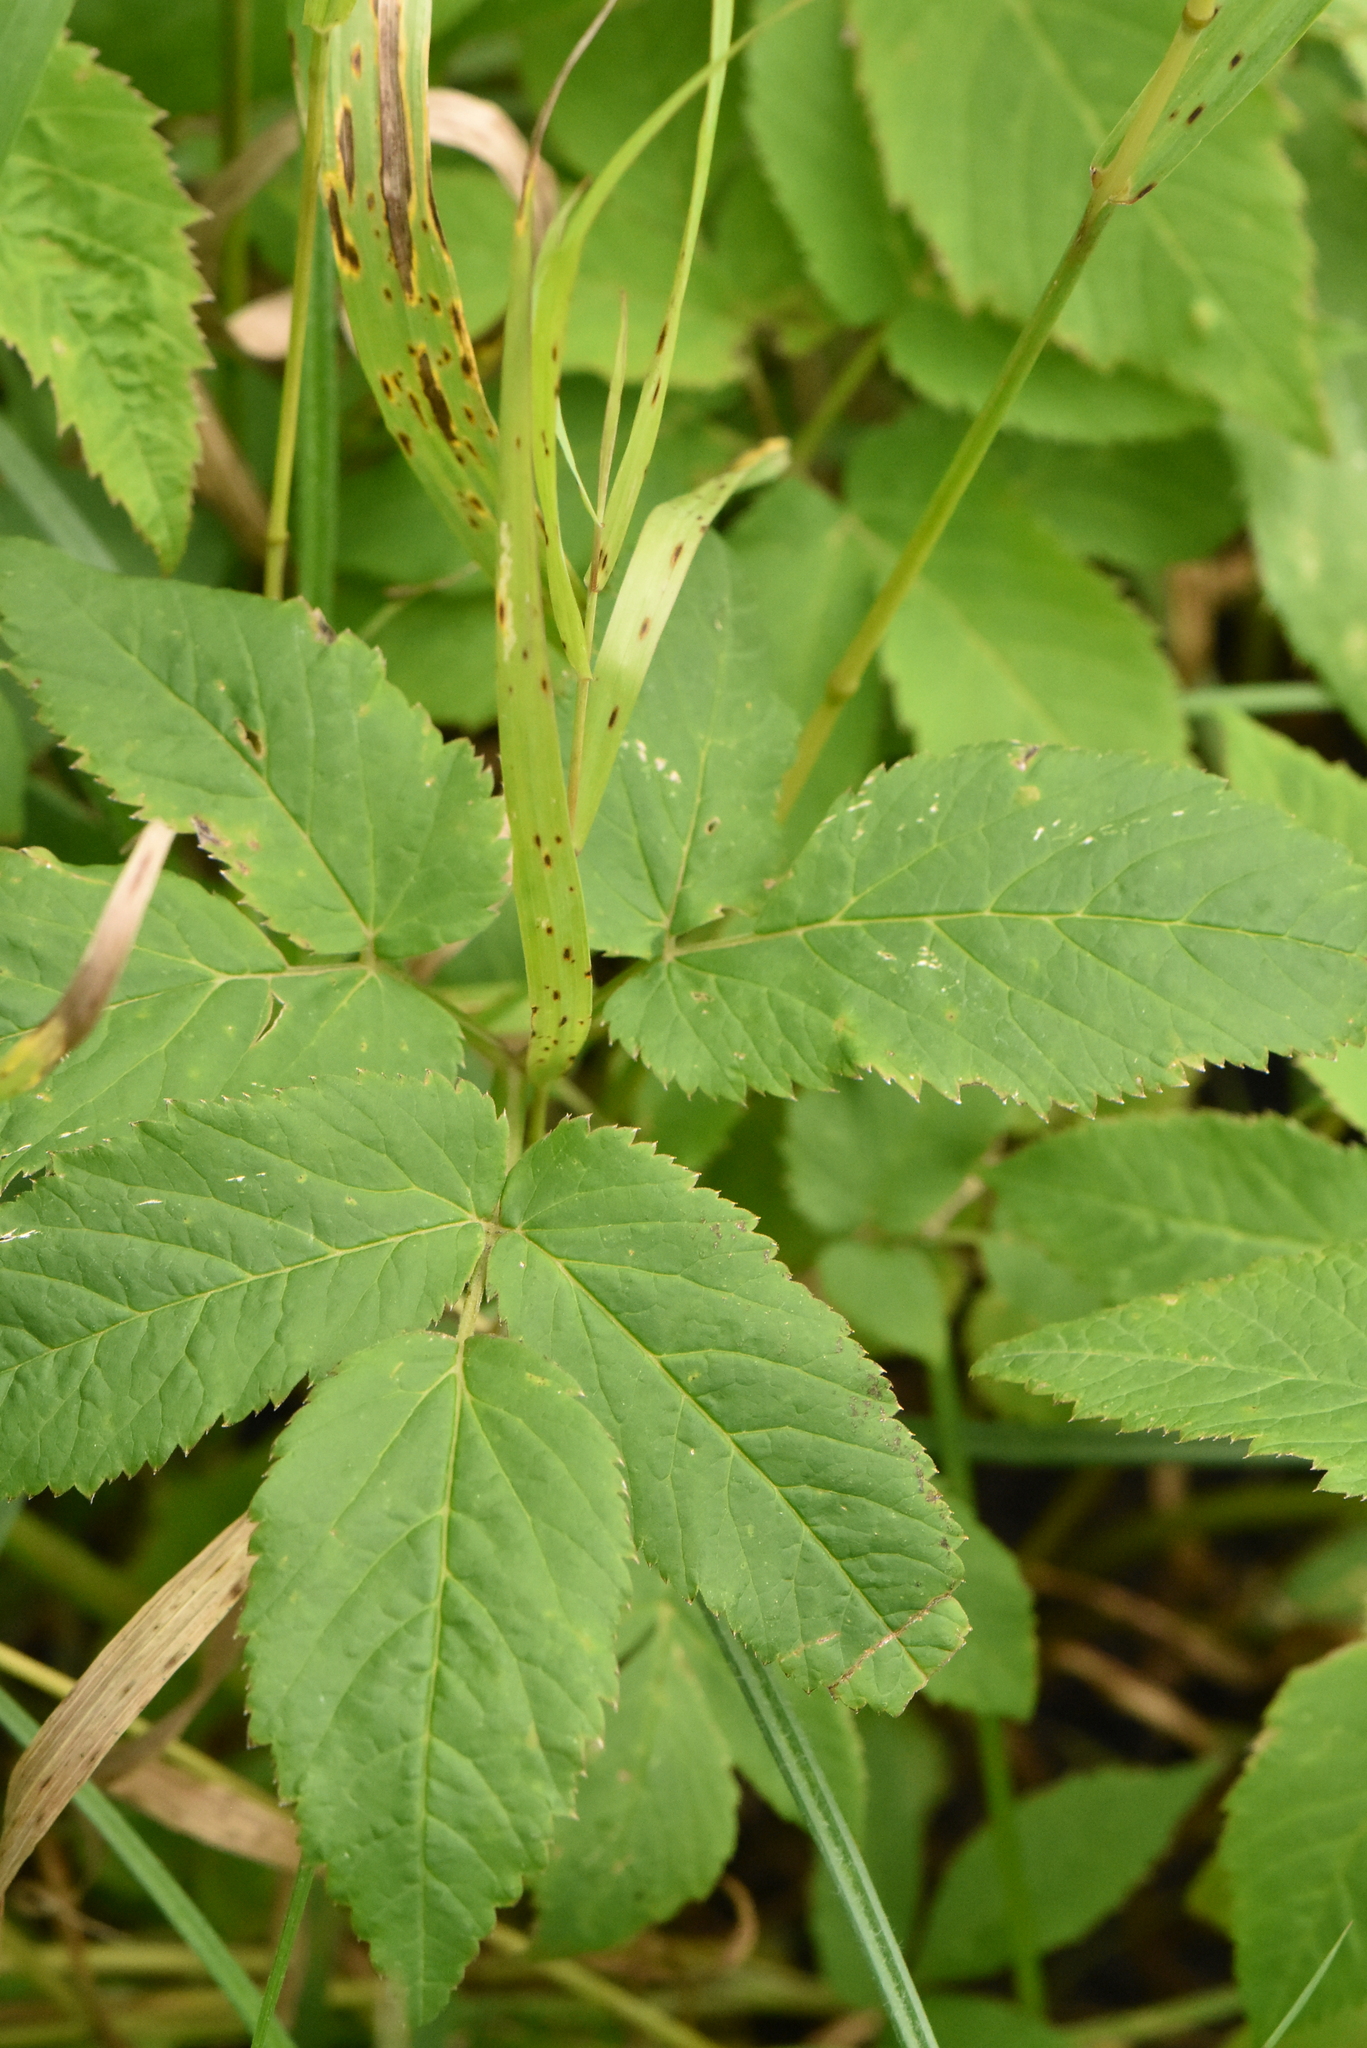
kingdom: Plantae
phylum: Tracheophyta
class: Magnoliopsida
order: Apiales
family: Apiaceae
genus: Aegopodium
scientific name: Aegopodium podagraria
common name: Ground-elder
